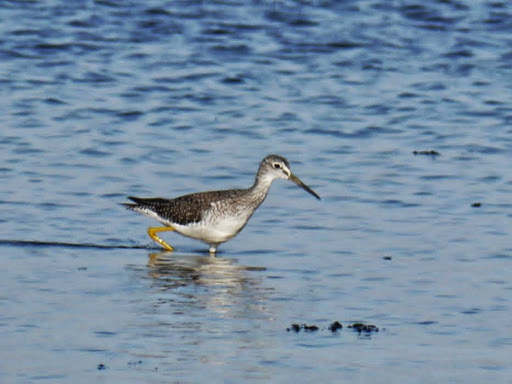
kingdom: Animalia
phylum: Chordata
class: Aves
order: Charadriiformes
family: Scolopacidae
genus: Tringa
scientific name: Tringa melanoleuca
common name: Greater yellowlegs
